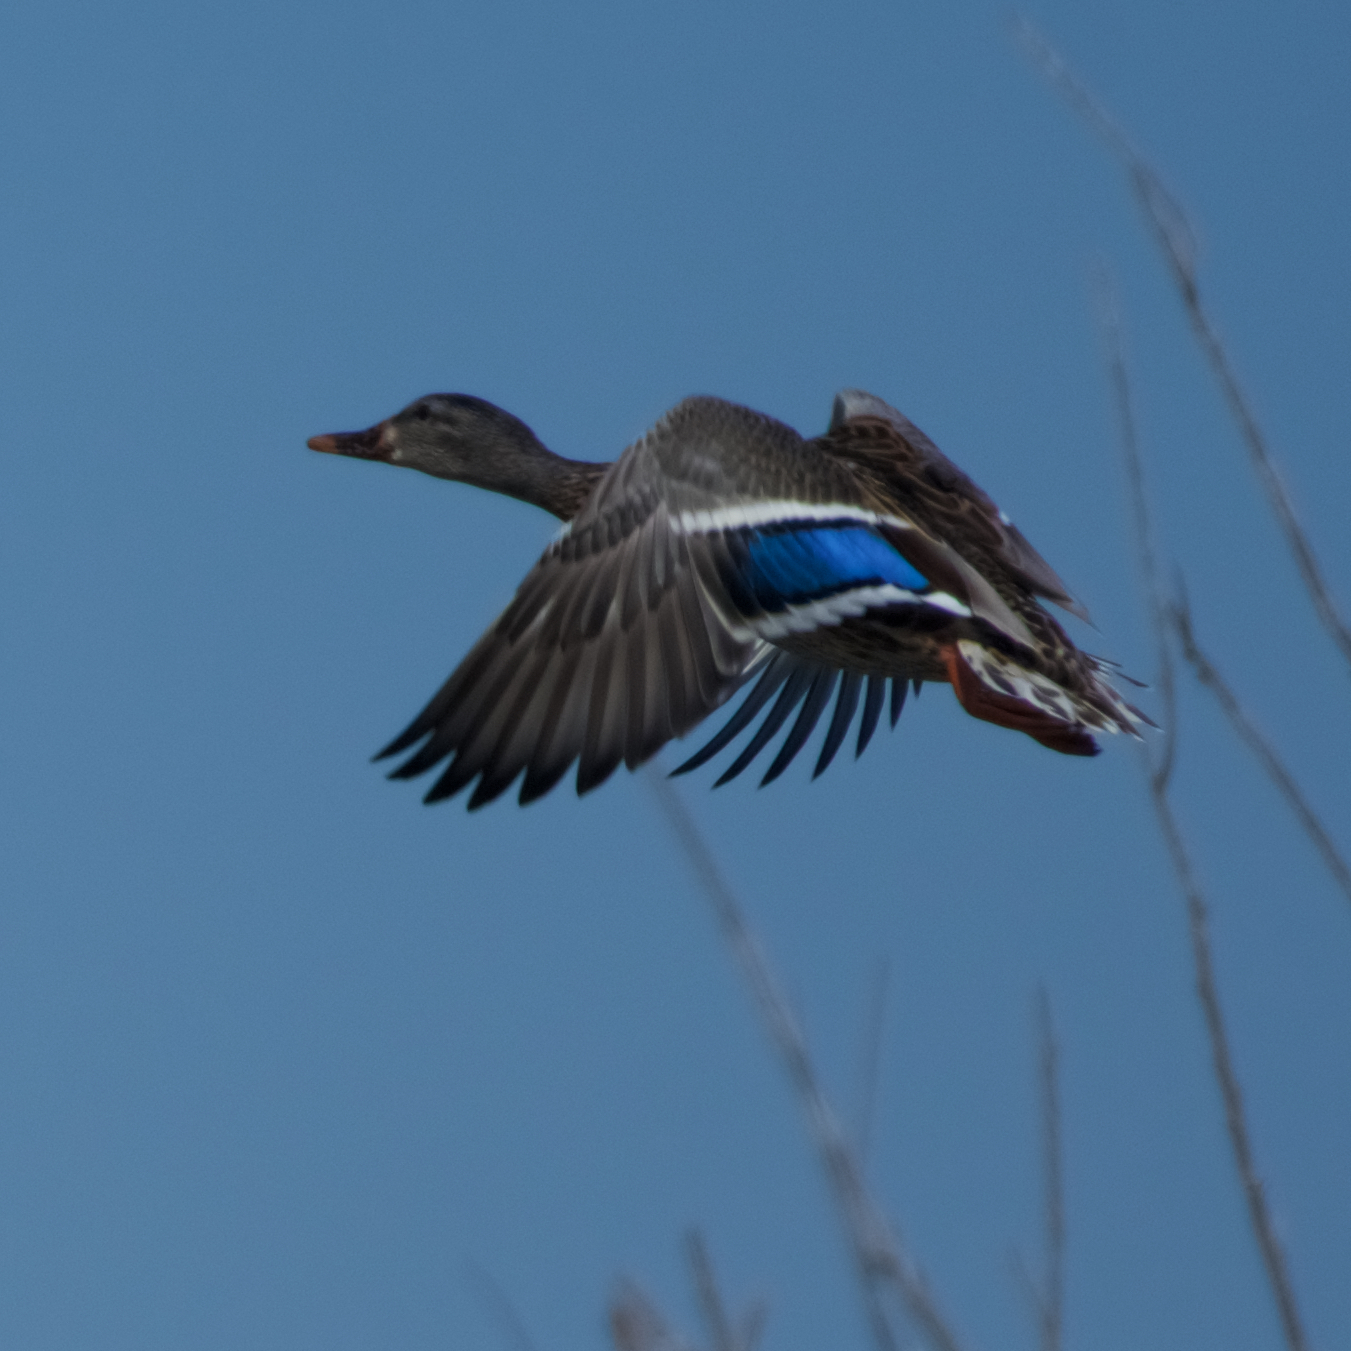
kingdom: Animalia
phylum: Chordata
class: Aves
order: Anseriformes
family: Anatidae
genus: Anas
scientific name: Anas platyrhynchos
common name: Mallard
